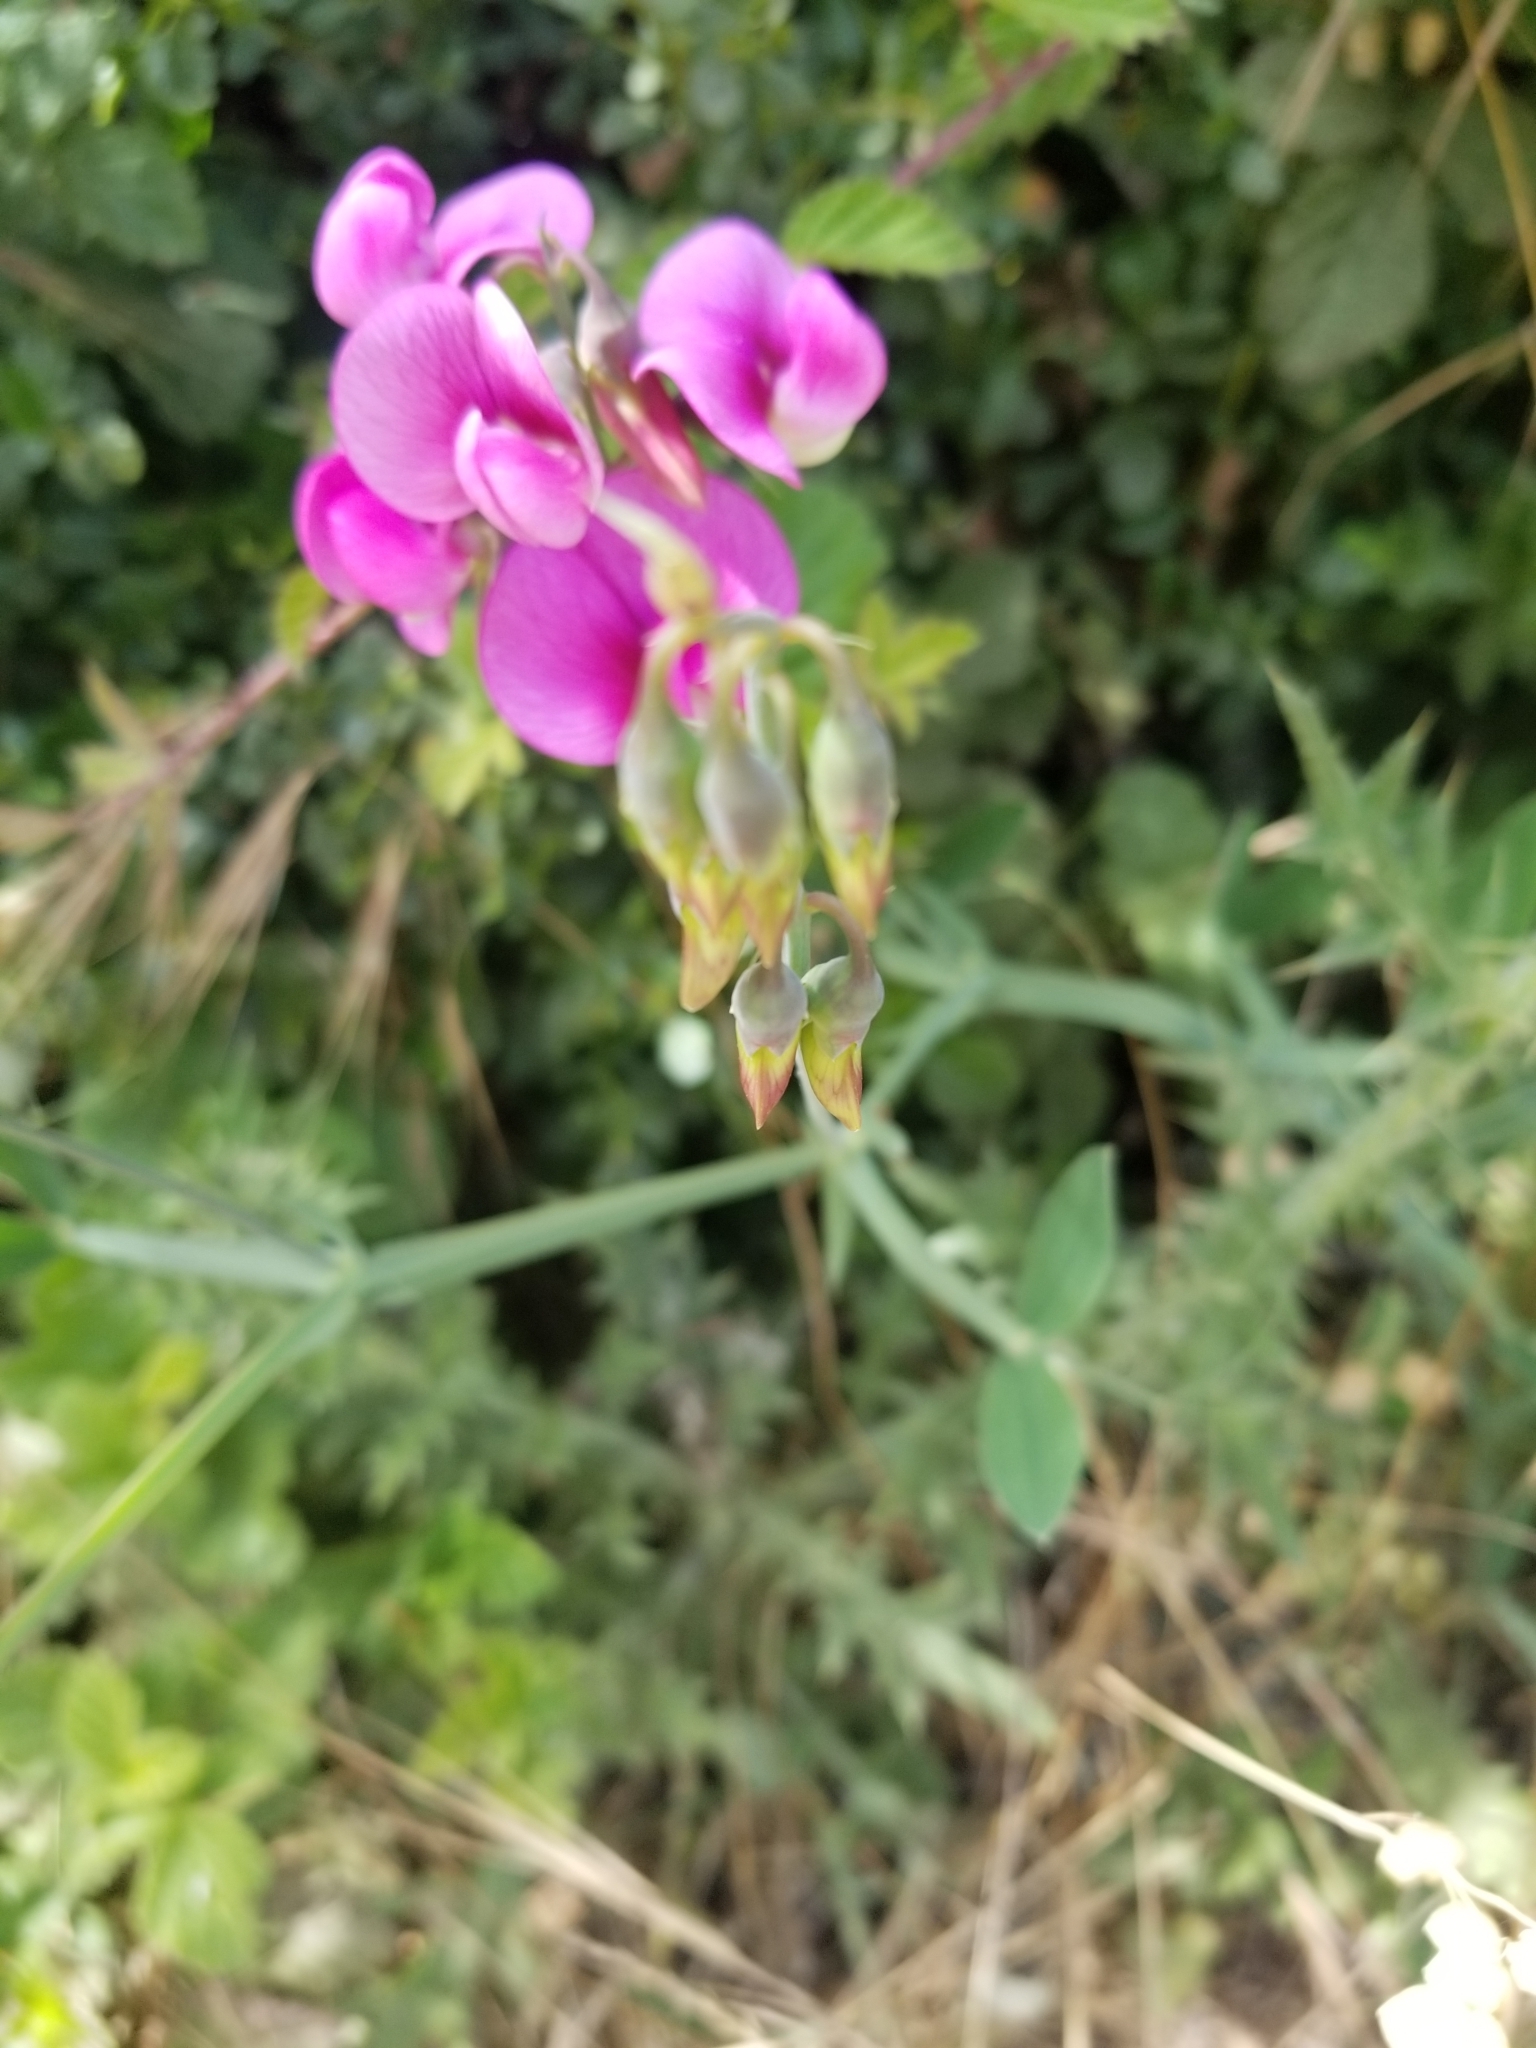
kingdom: Plantae
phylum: Tracheophyta
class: Magnoliopsida
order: Fabales
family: Fabaceae
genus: Lathyrus
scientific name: Lathyrus latifolius
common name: Perennial pea
